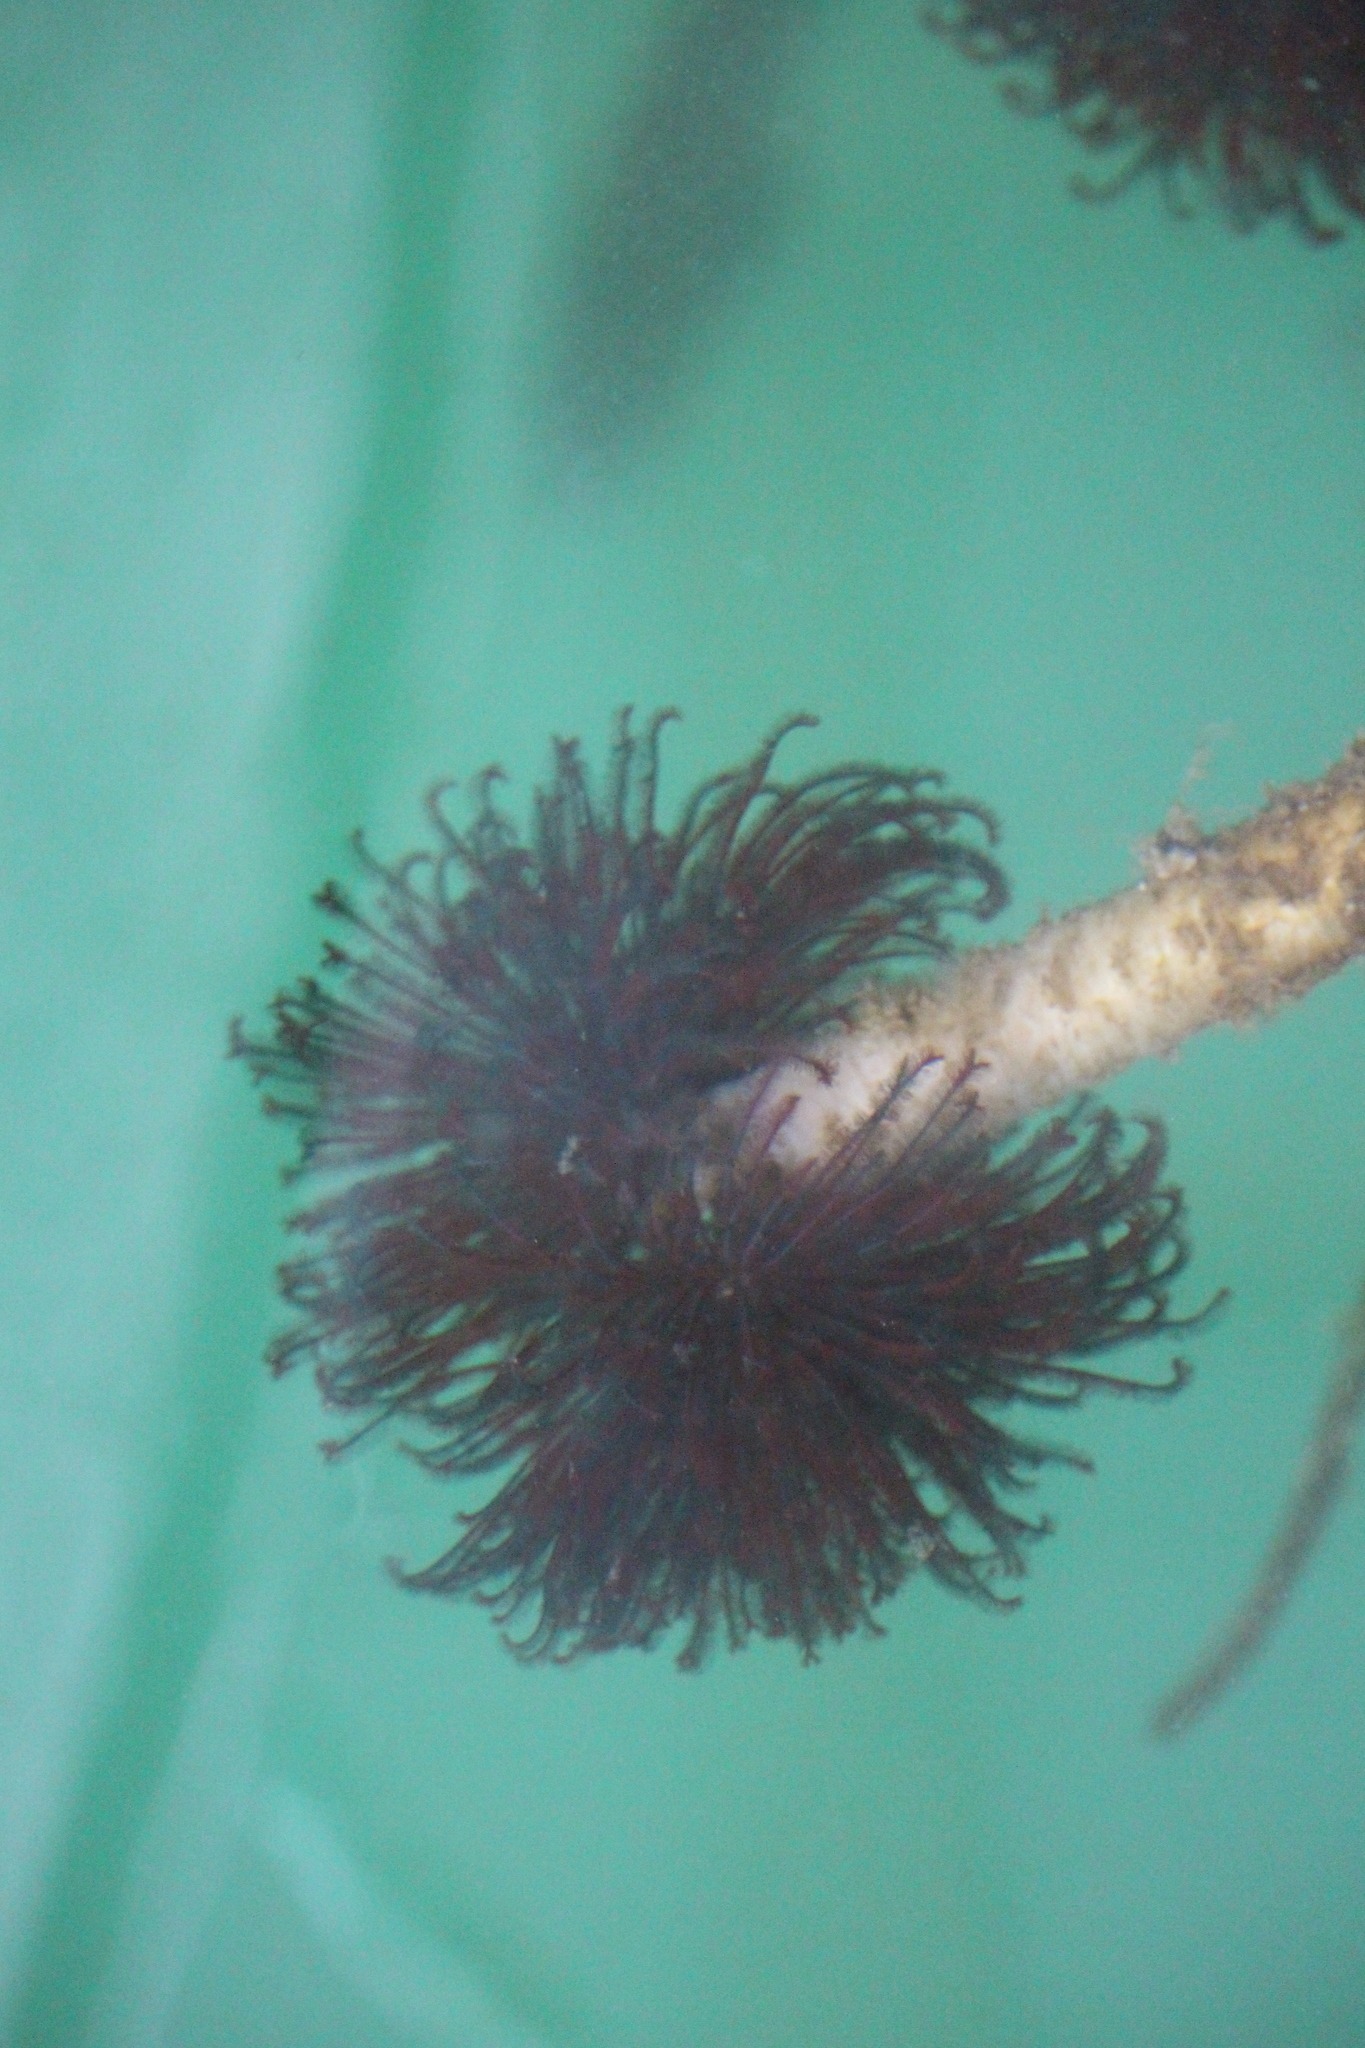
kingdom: Animalia
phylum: Annelida
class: Polychaeta
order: Sabellida
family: Sabellidae
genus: Eudistylia
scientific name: Eudistylia vancouveri
